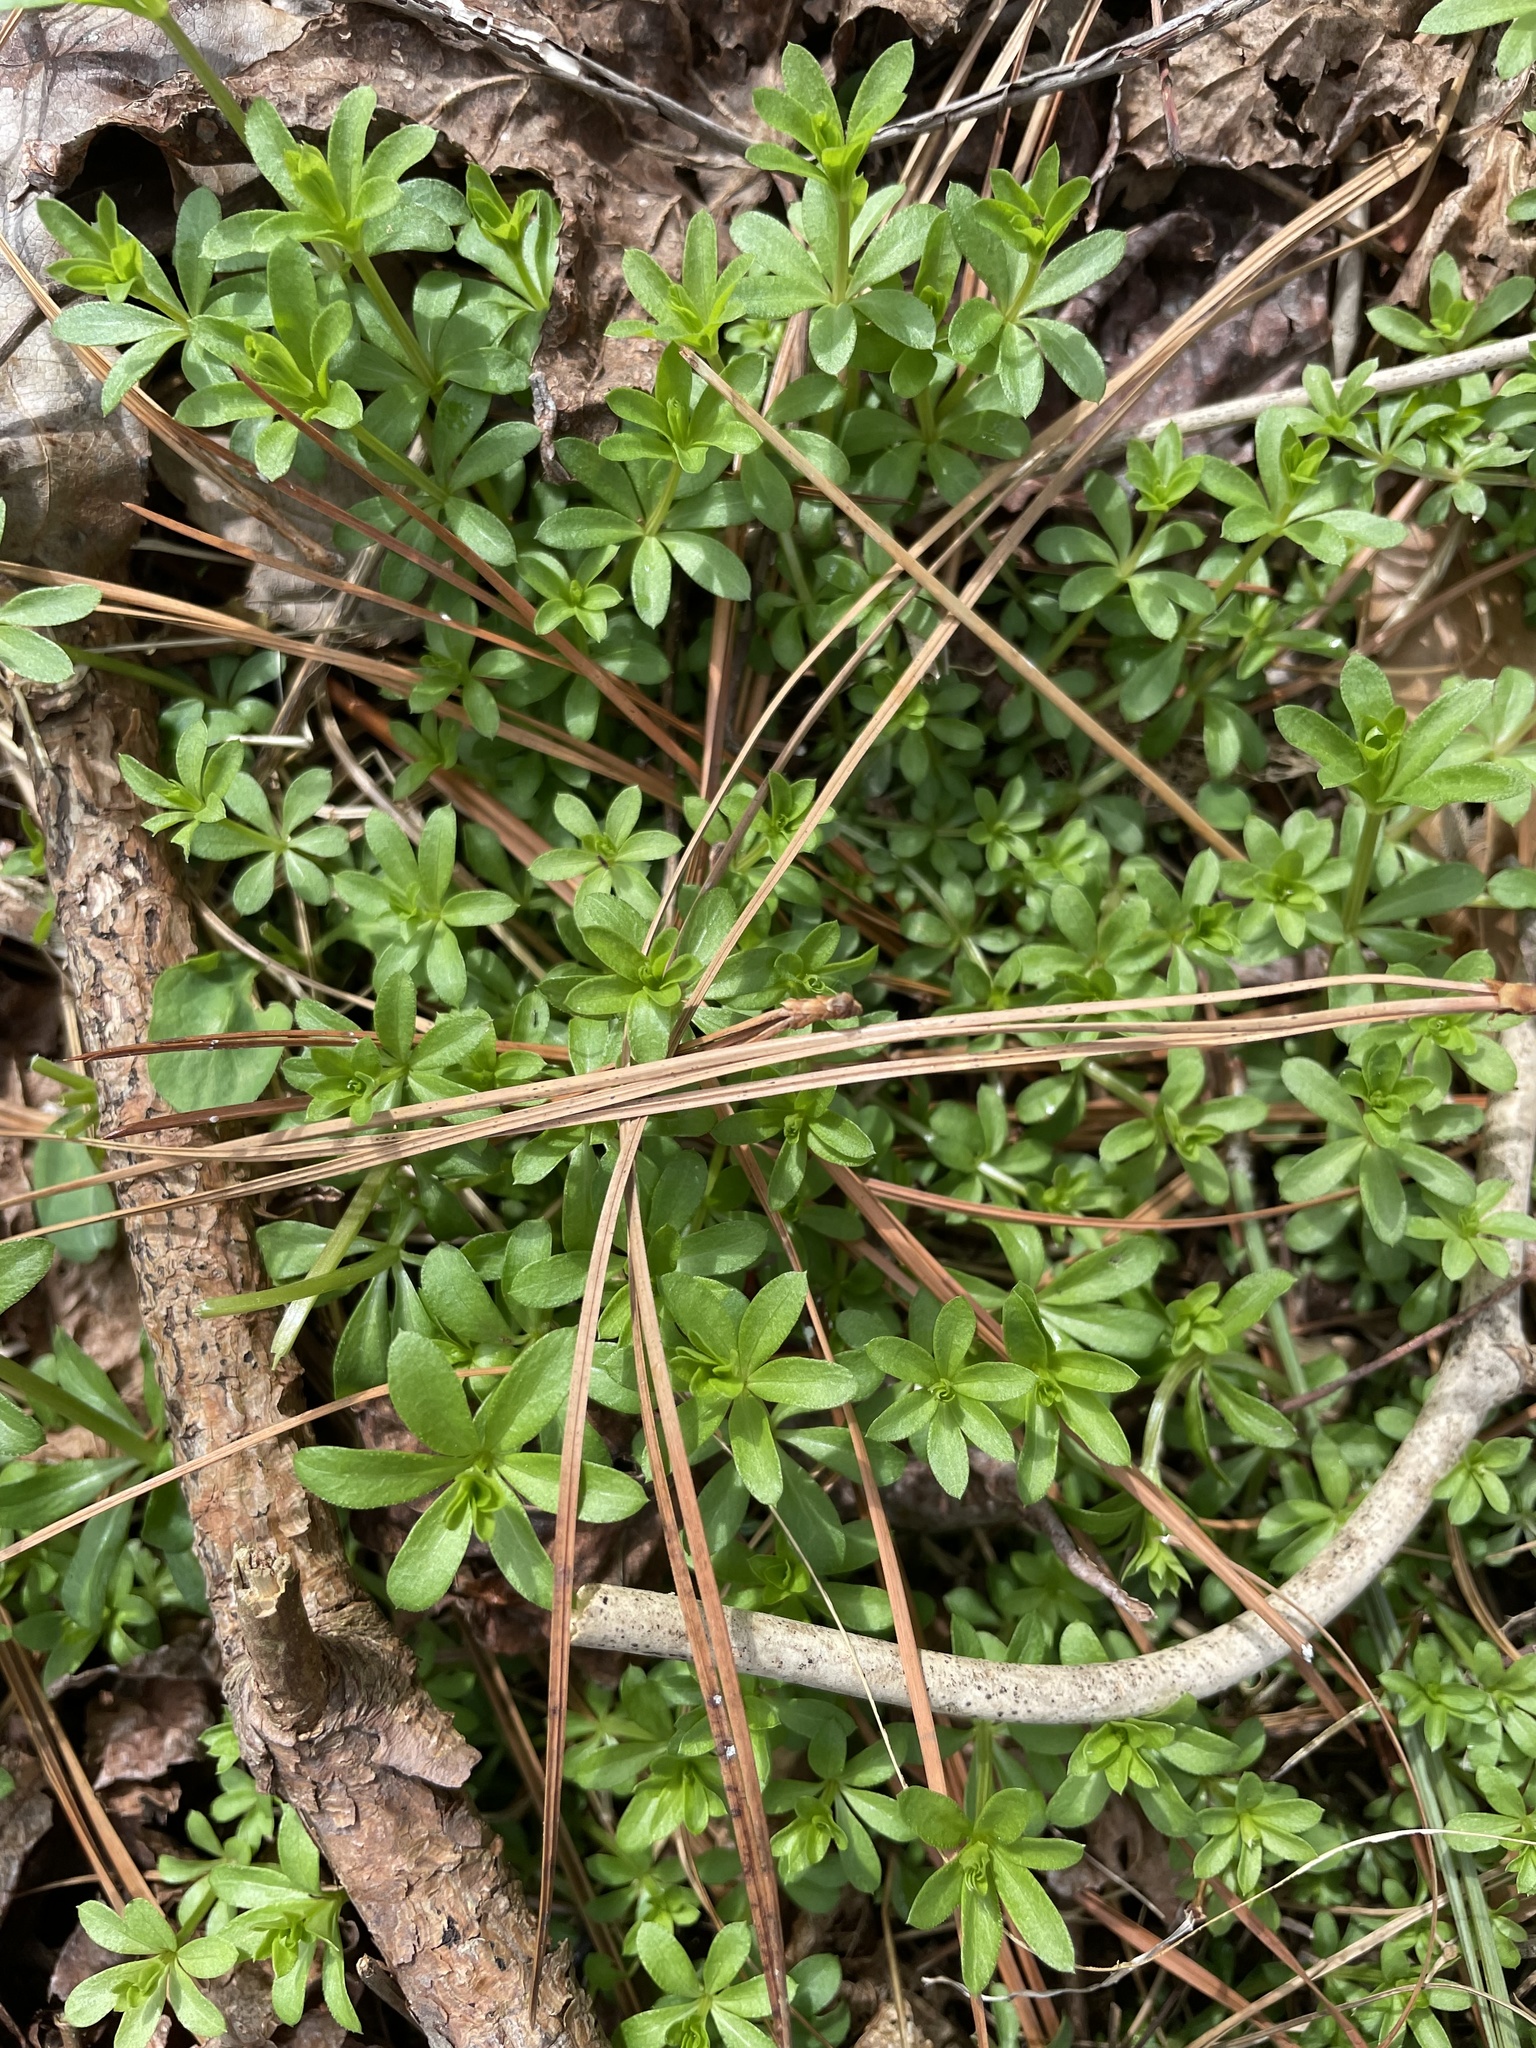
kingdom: Plantae
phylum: Tracheophyta
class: Magnoliopsida
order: Gentianales
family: Rubiaceae
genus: Galium
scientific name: Galium triflorum
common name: Fragrant bedstraw
